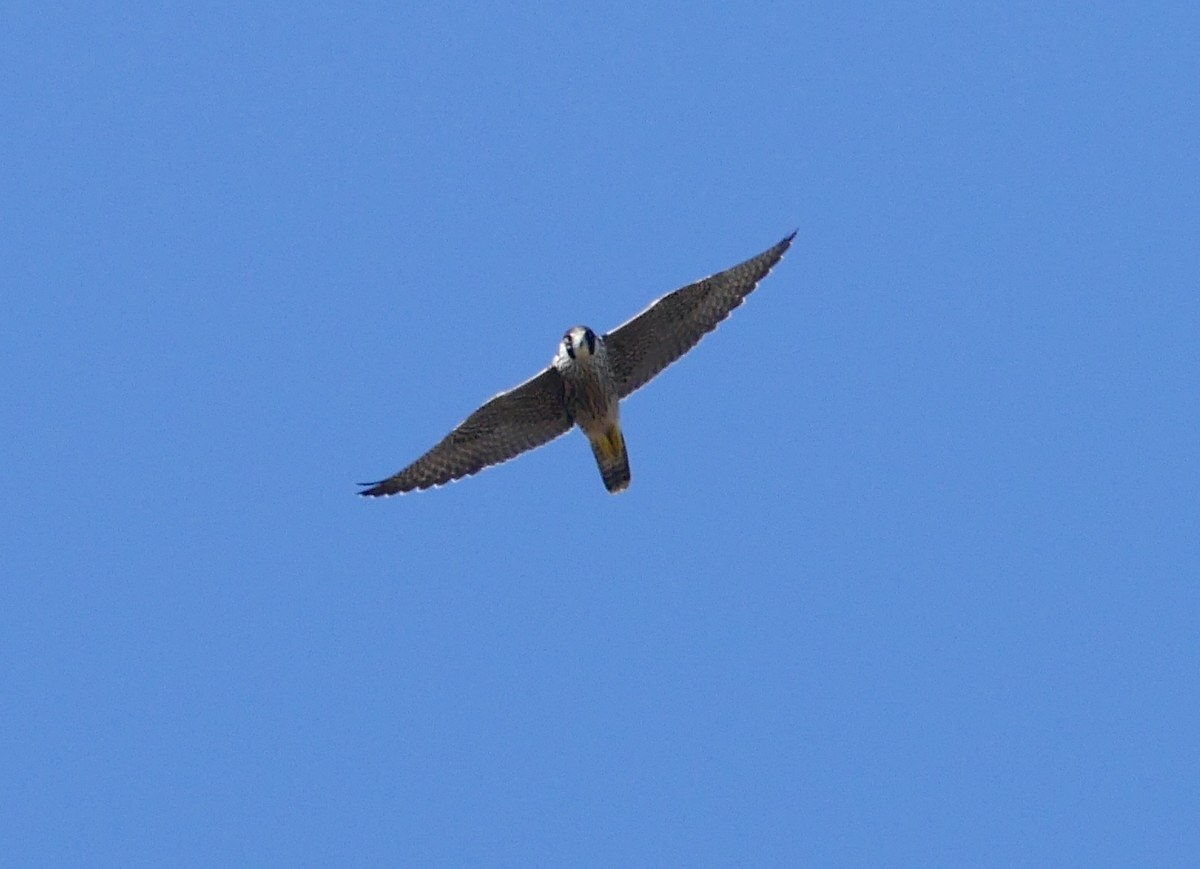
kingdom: Animalia
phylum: Chordata
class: Aves
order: Falconiformes
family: Falconidae
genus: Falco
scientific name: Falco peregrinus
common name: Peregrine falcon
